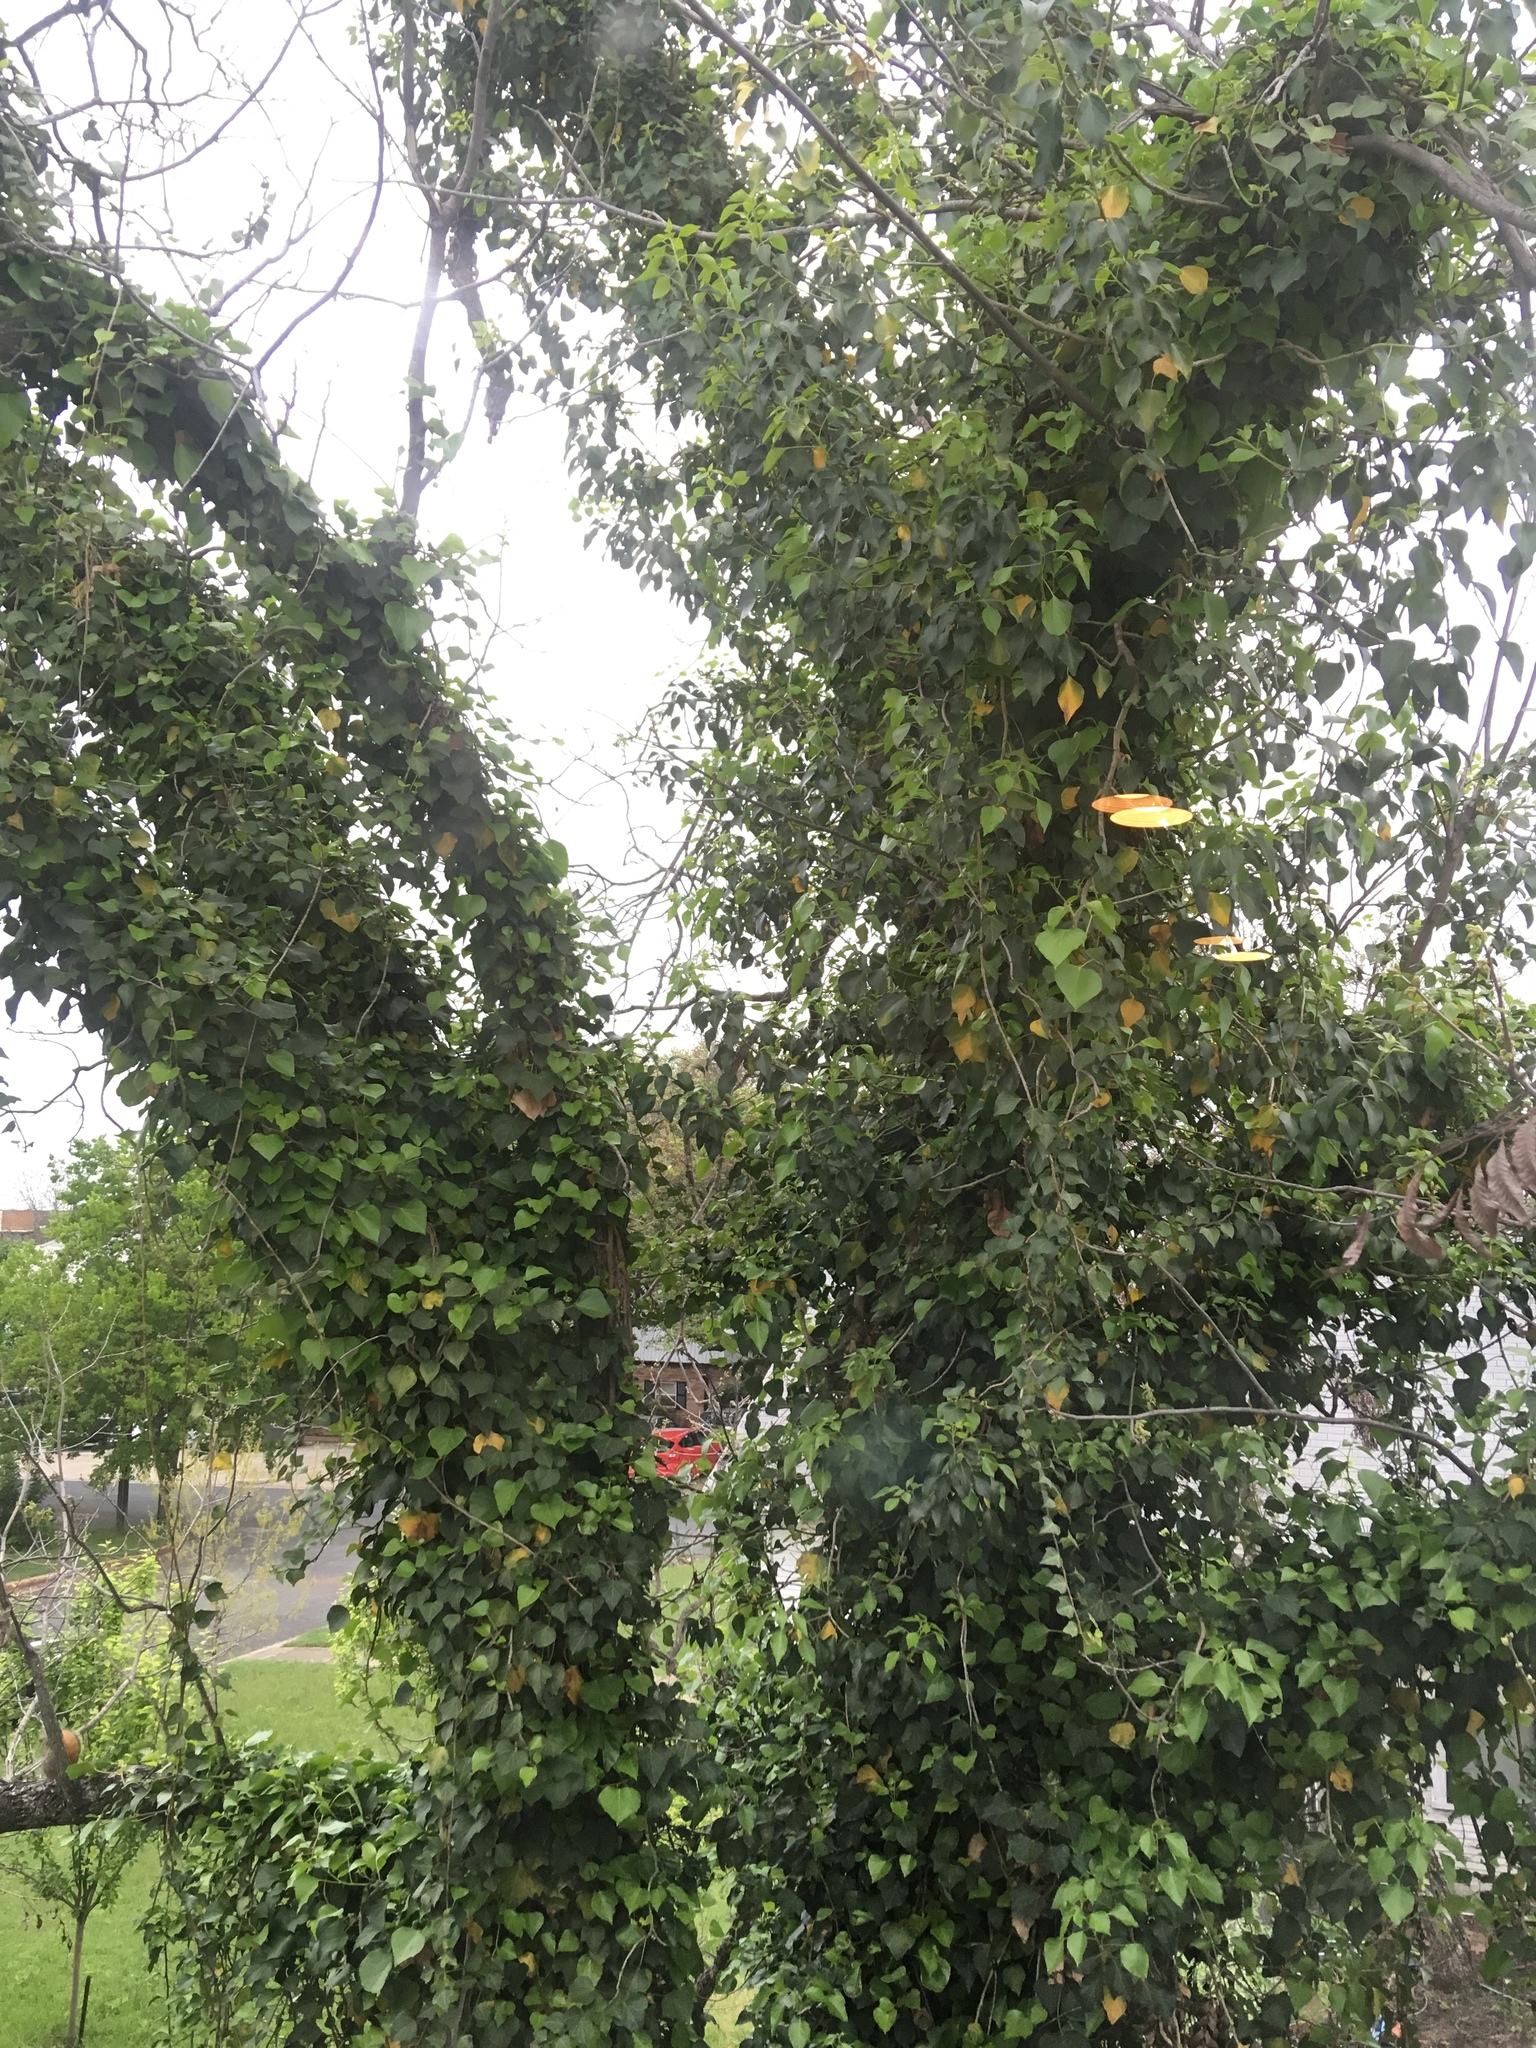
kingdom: Plantae
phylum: Tracheophyta
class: Magnoliopsida
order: Apiales
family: Araliaceae
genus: Hedera
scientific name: Hedera helix
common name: Ivy
